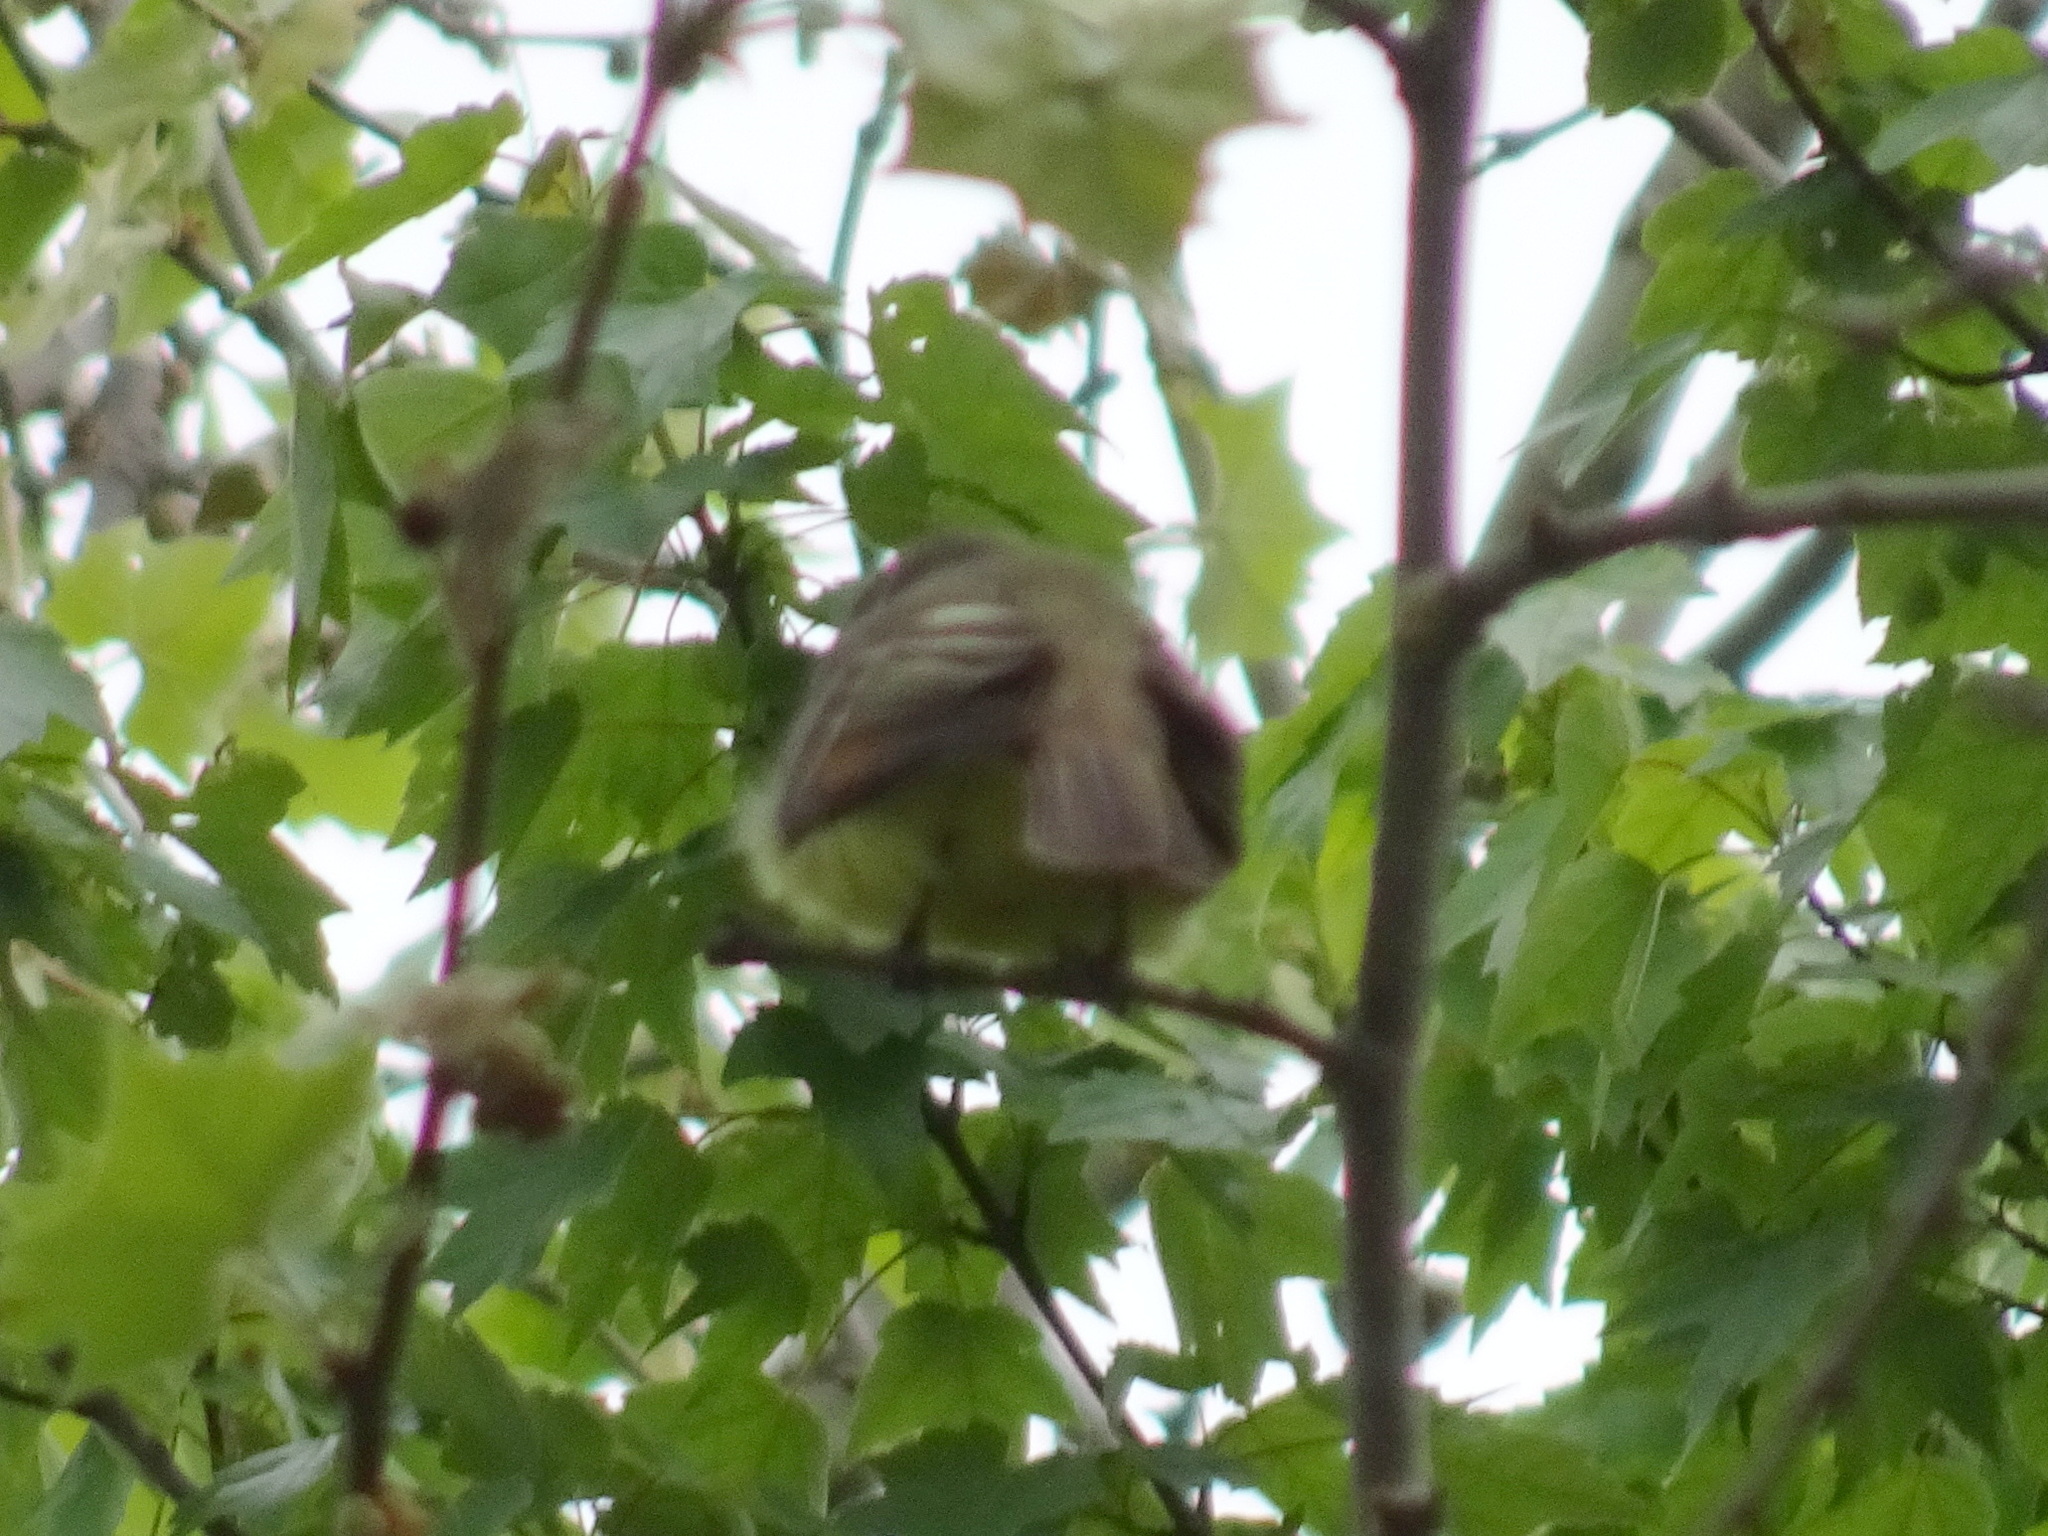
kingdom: Animalia
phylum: Chordata
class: Aves
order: Passeriformes
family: Tyrannidae
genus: Myiarchus
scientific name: Myiarchus crinitus
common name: Great crested flycatcher
